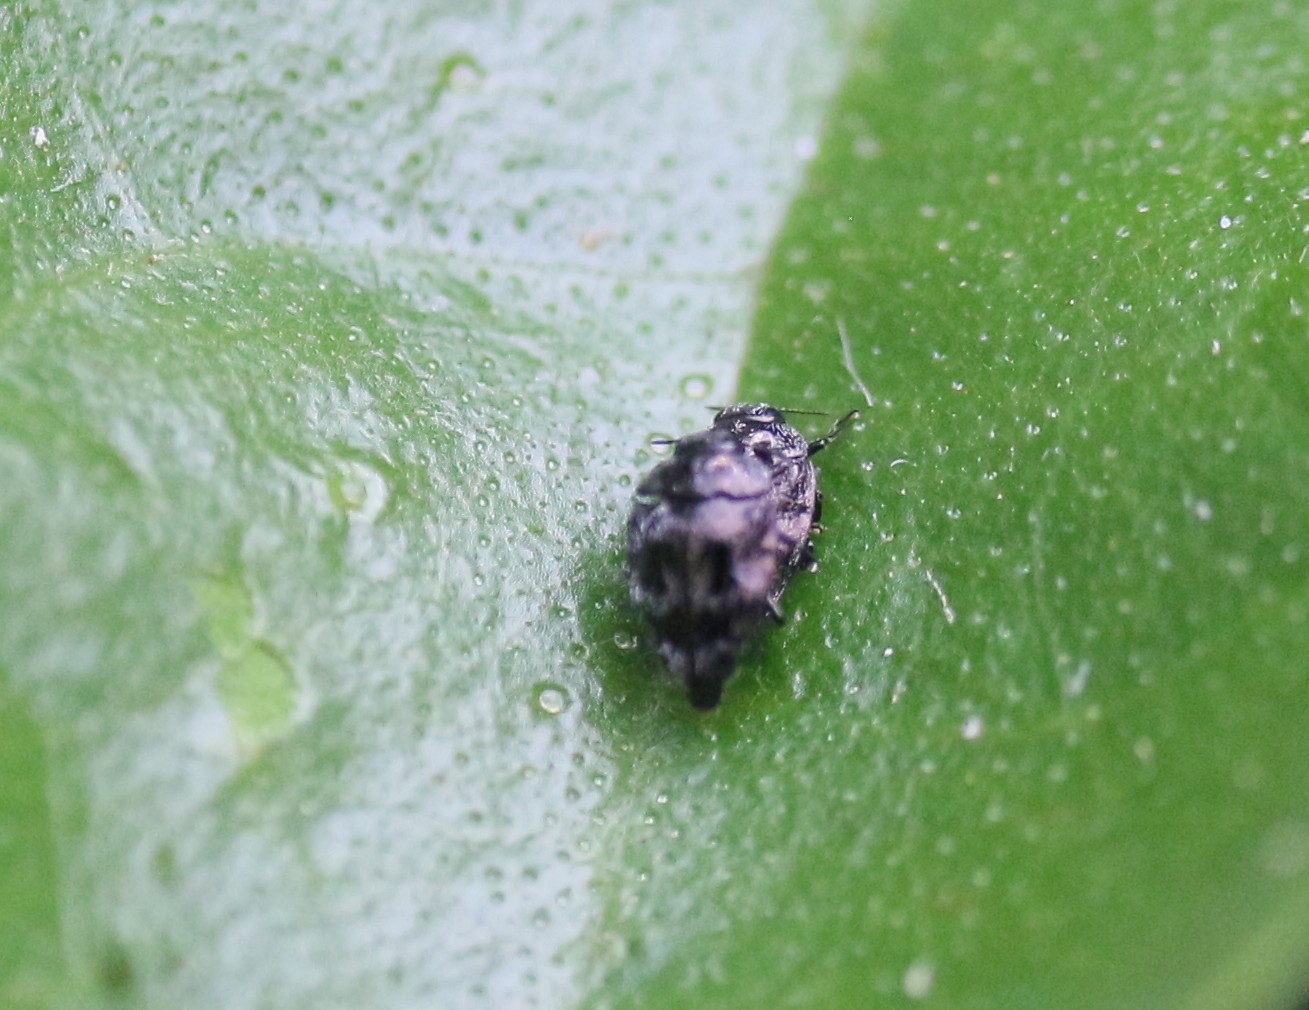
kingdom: Animalia
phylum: Arthropoda
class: Insecta
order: Coleoptera
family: Buprestidae
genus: Euhylaeogena
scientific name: Euhylaeogena
